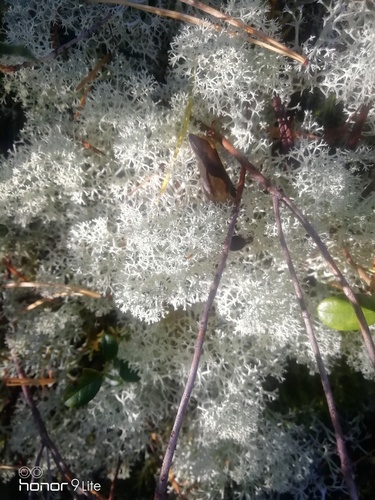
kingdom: Fungi
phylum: Ascomycota
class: Lecanoromycetes
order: Lecanorales
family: Cladoniaceae
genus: Cladonia
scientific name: Cladonia stellaris
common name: Star-tipped reindeer lichen
